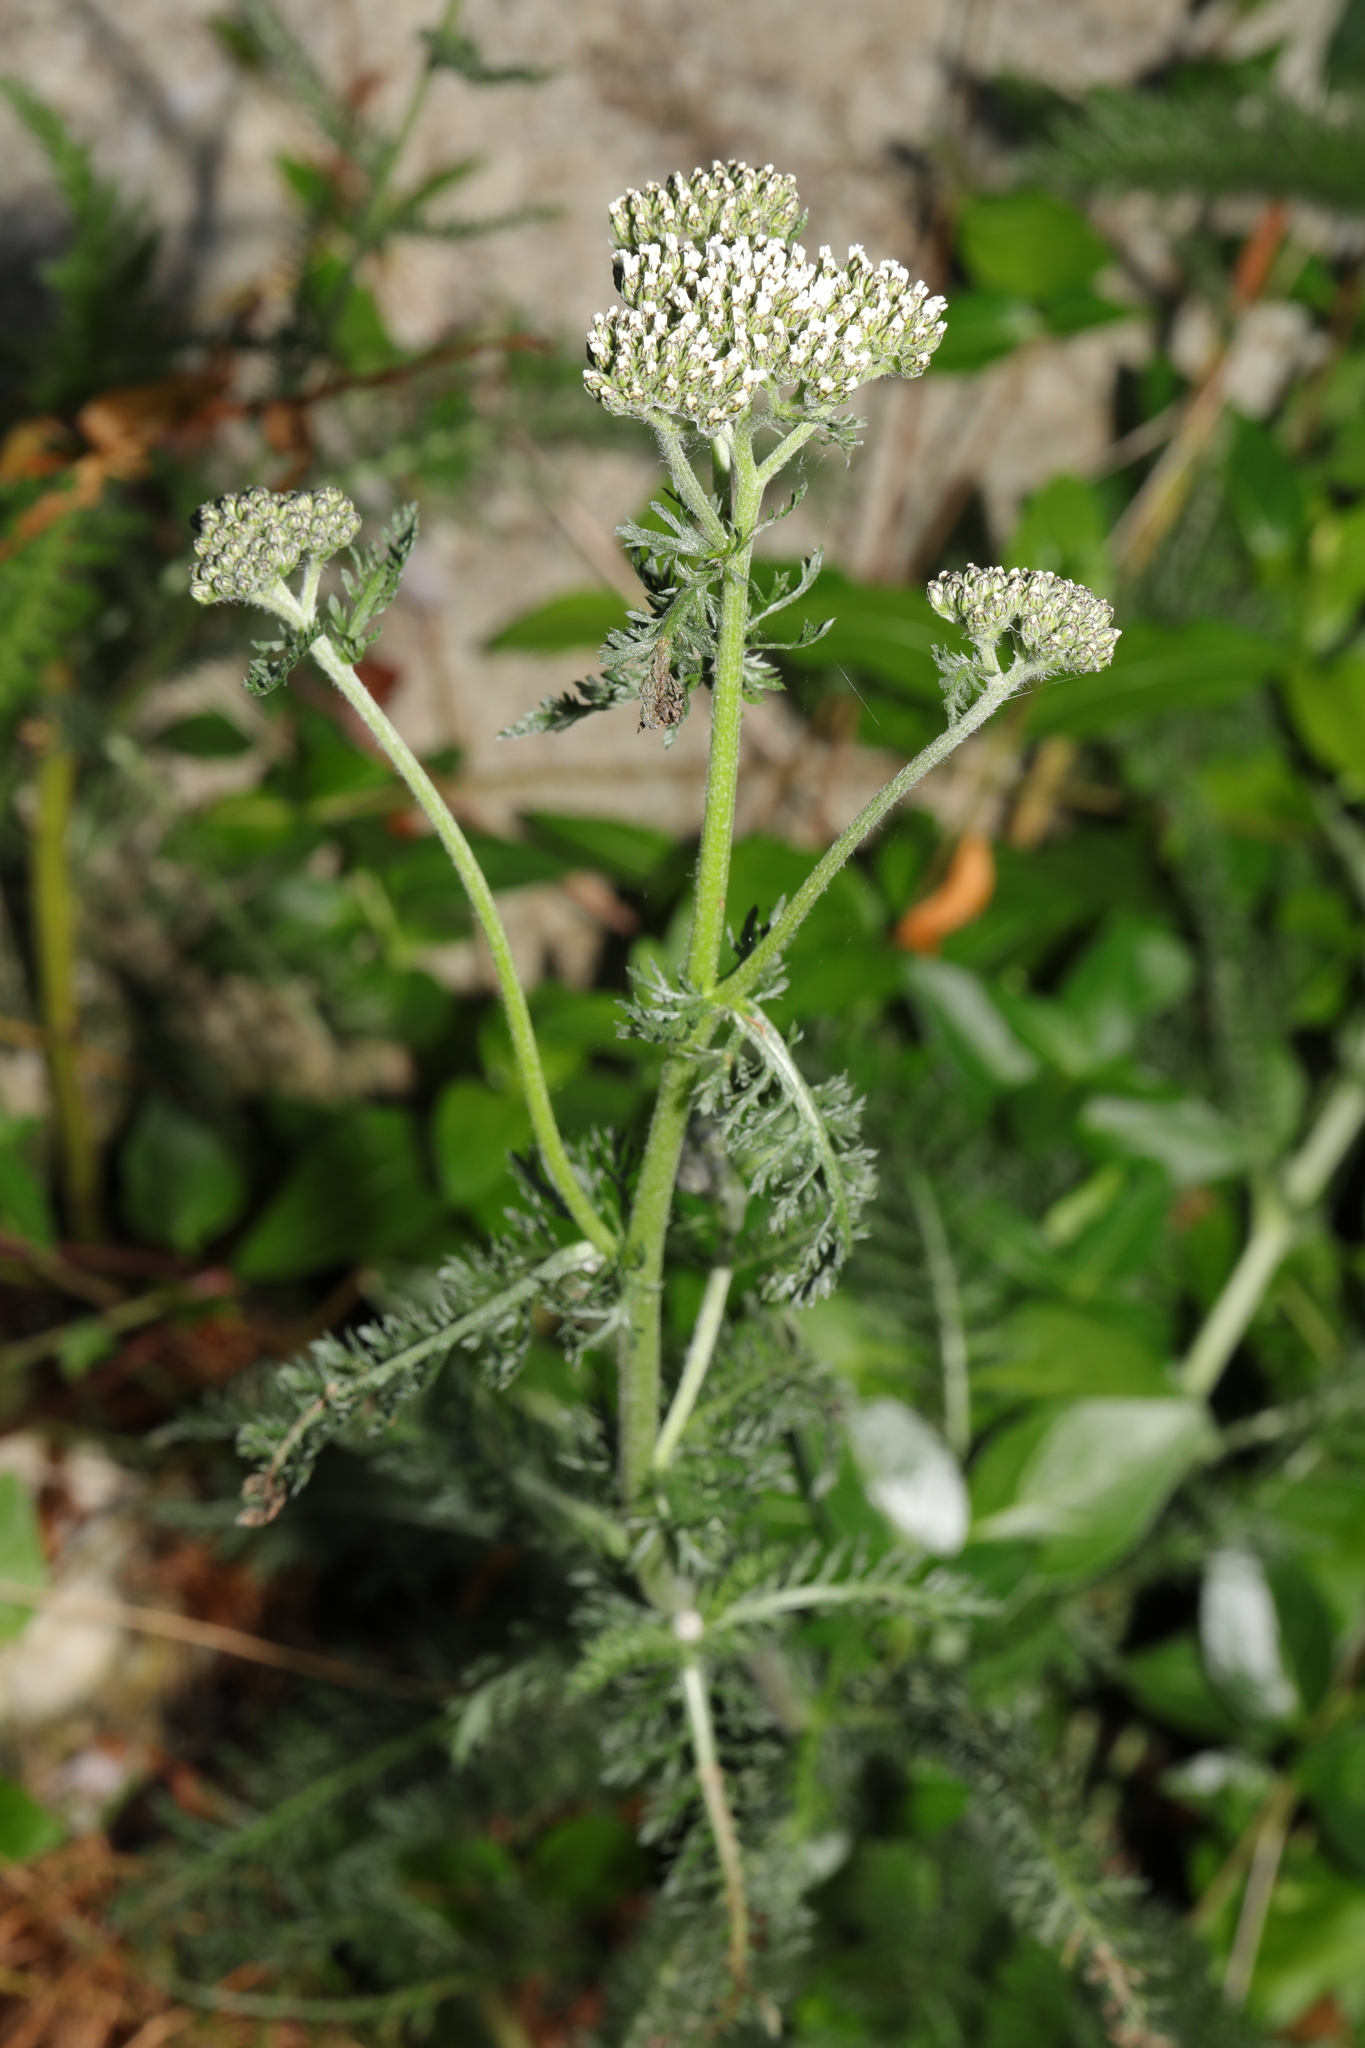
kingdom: Plantae
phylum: Tracheophyta
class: Magnoliopsida
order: Asterales
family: Asteraceae
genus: Achillea
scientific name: Achillea millefolium
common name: Yarrow
